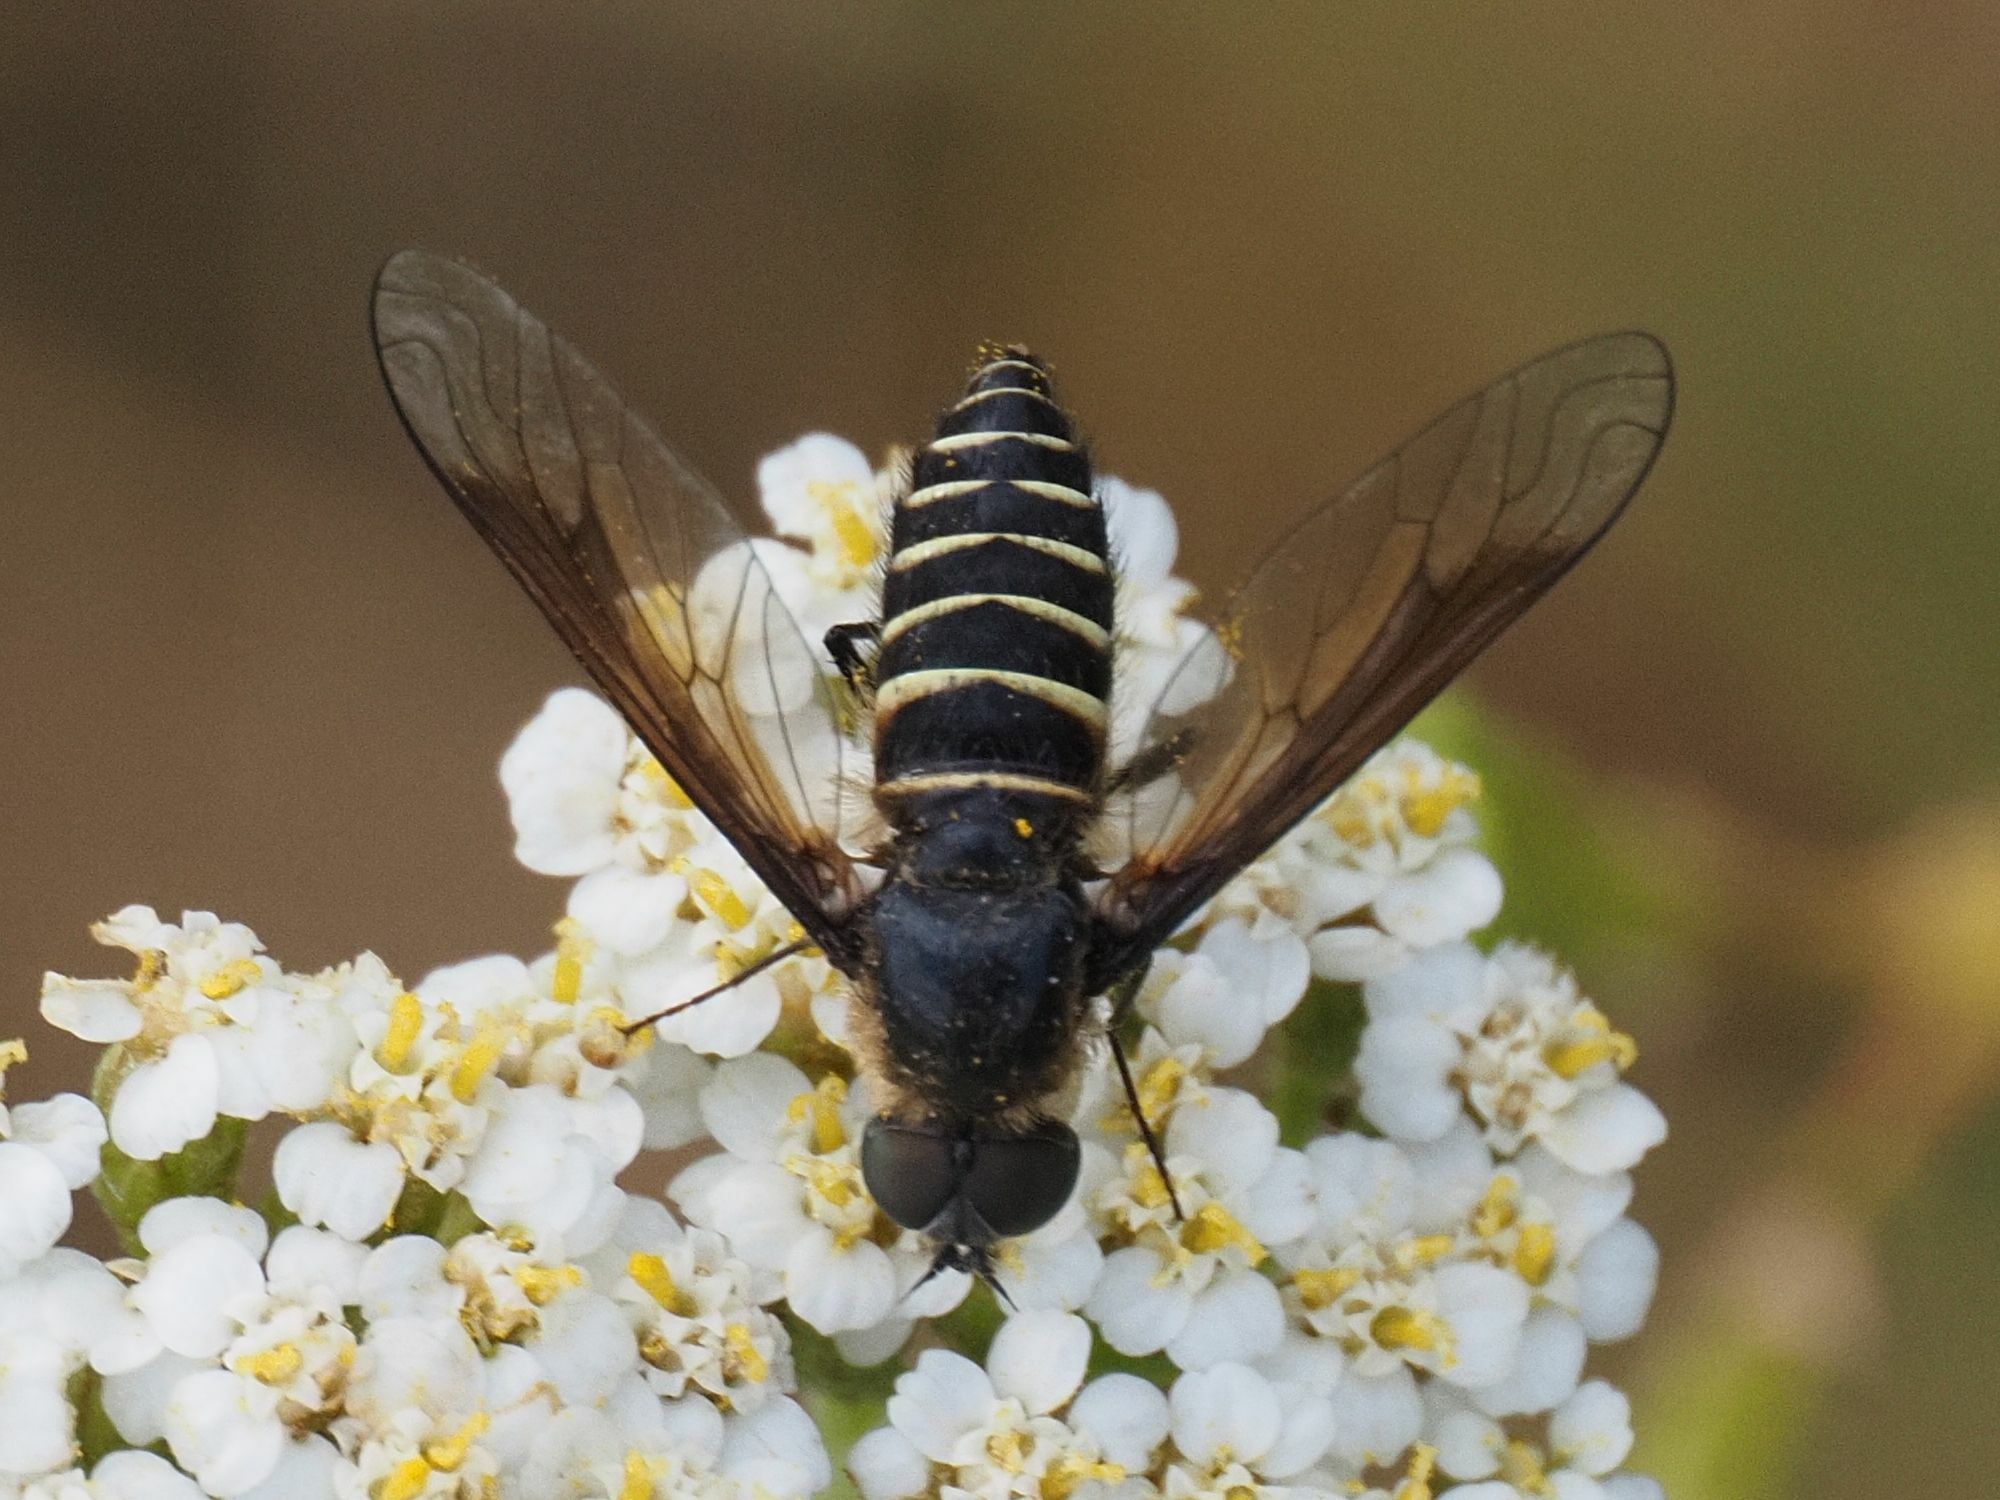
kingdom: Animalia
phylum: Arthropoda
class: Insecta
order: Diptera
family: Bombyliidae
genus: Lomatia
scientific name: Lomatia lateralis
